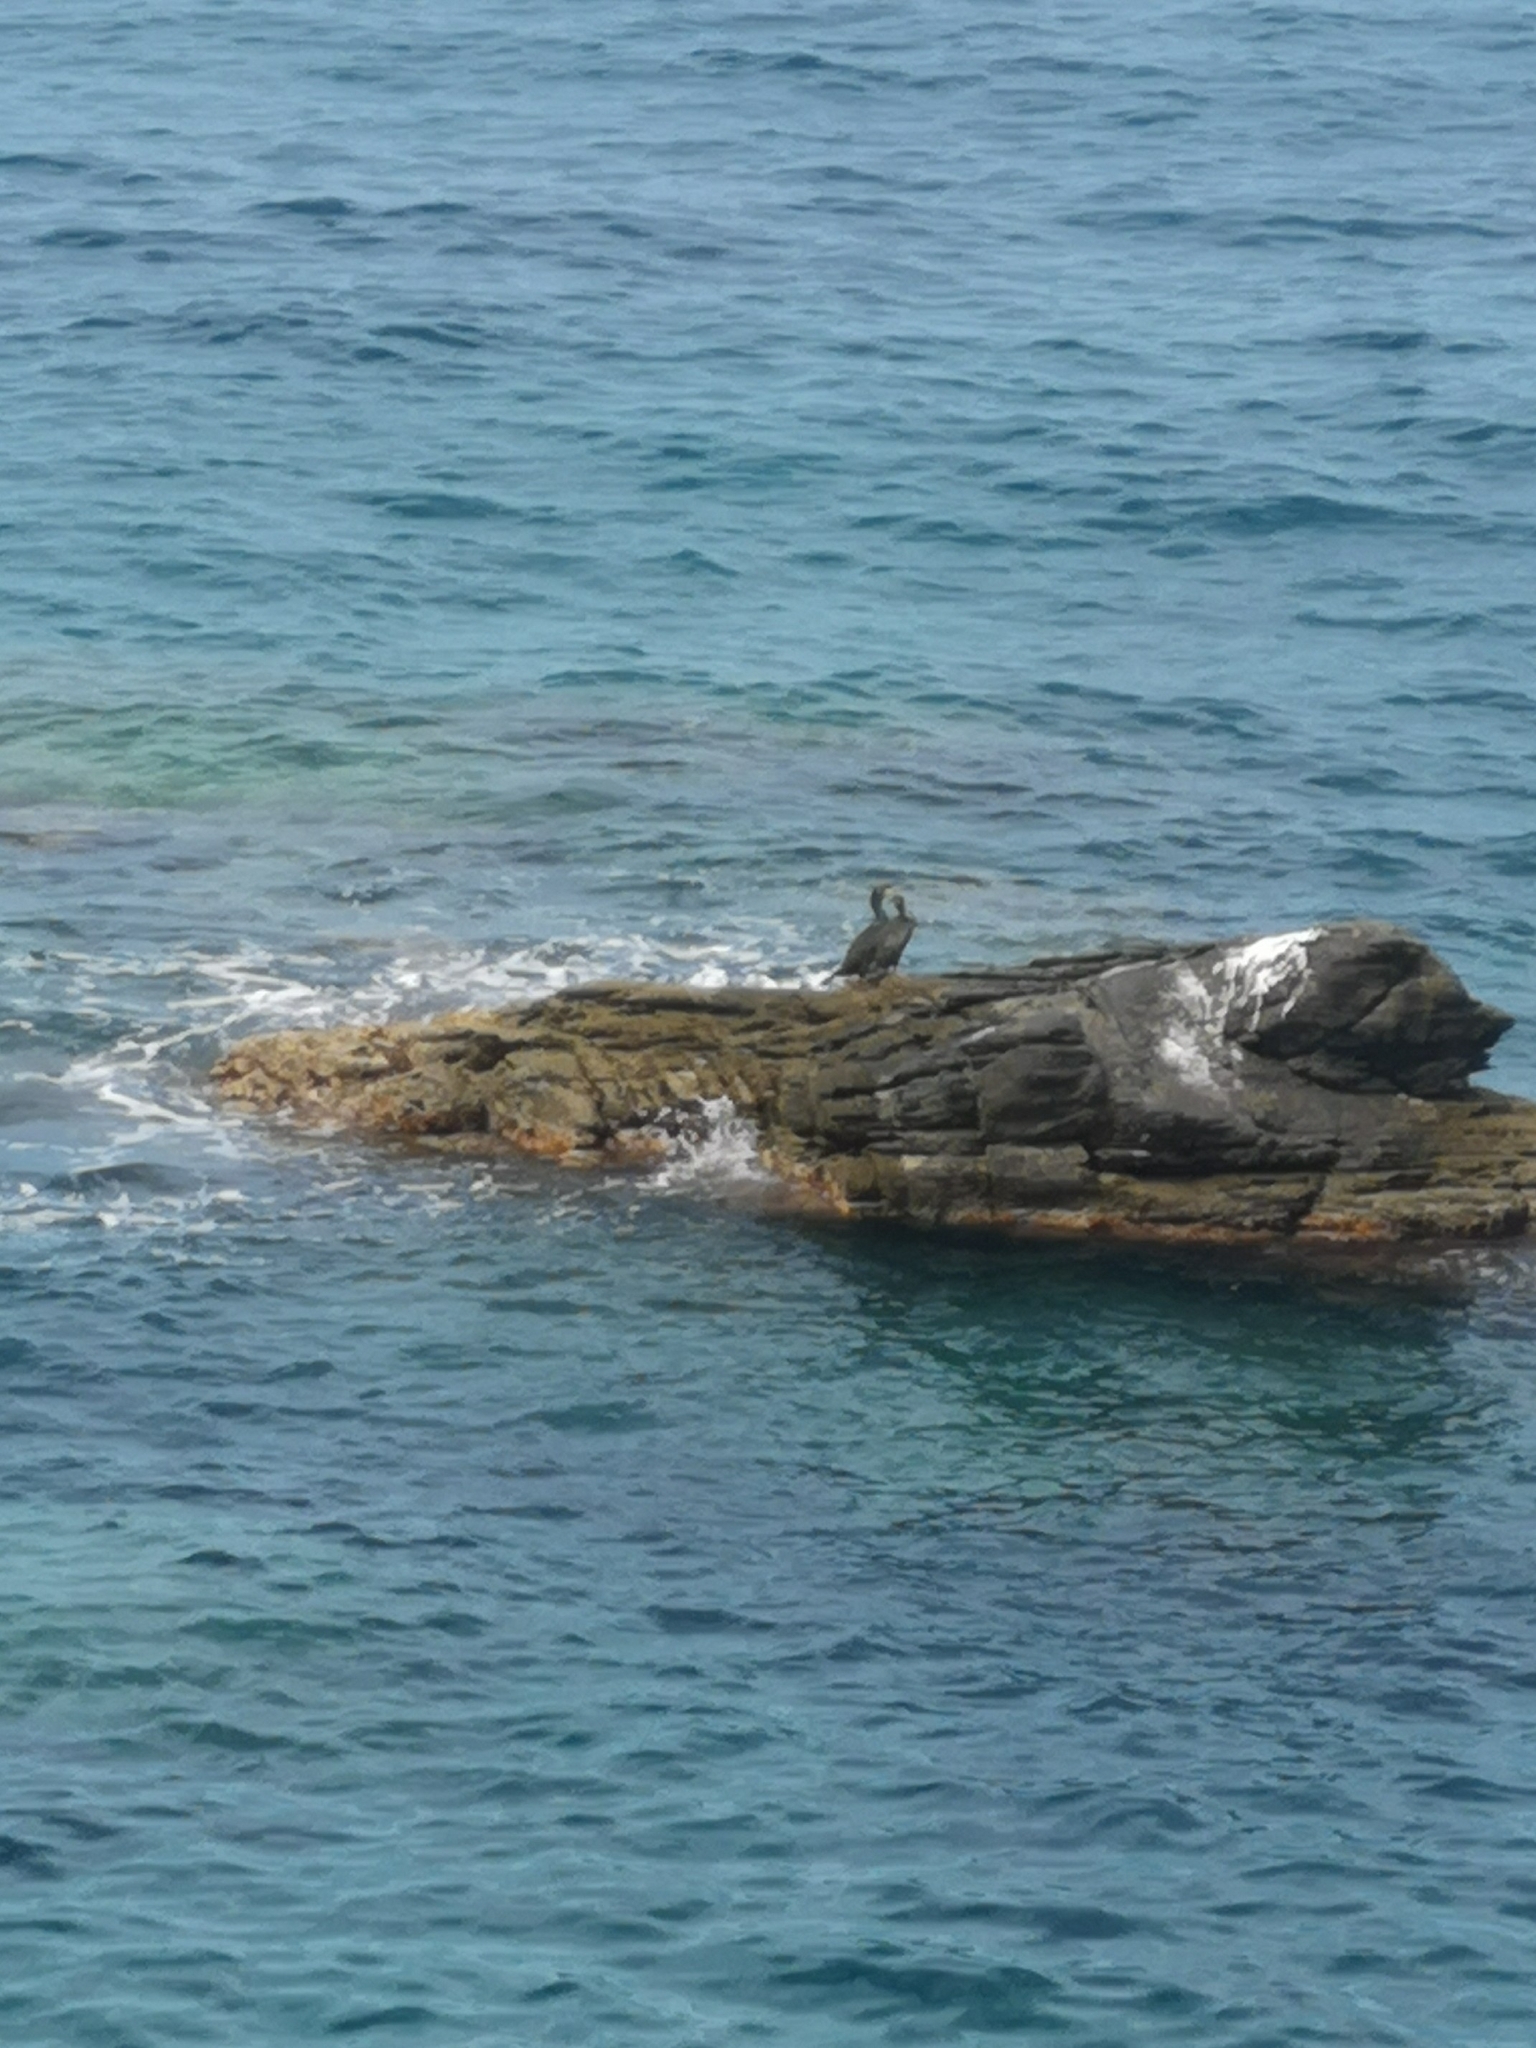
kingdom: Animalia
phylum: Chordata
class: Aves
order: Suliformes
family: Phalacrocoracidae
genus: Phalacrocorax
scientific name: Phalacrocorax aristotelis
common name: European shag
